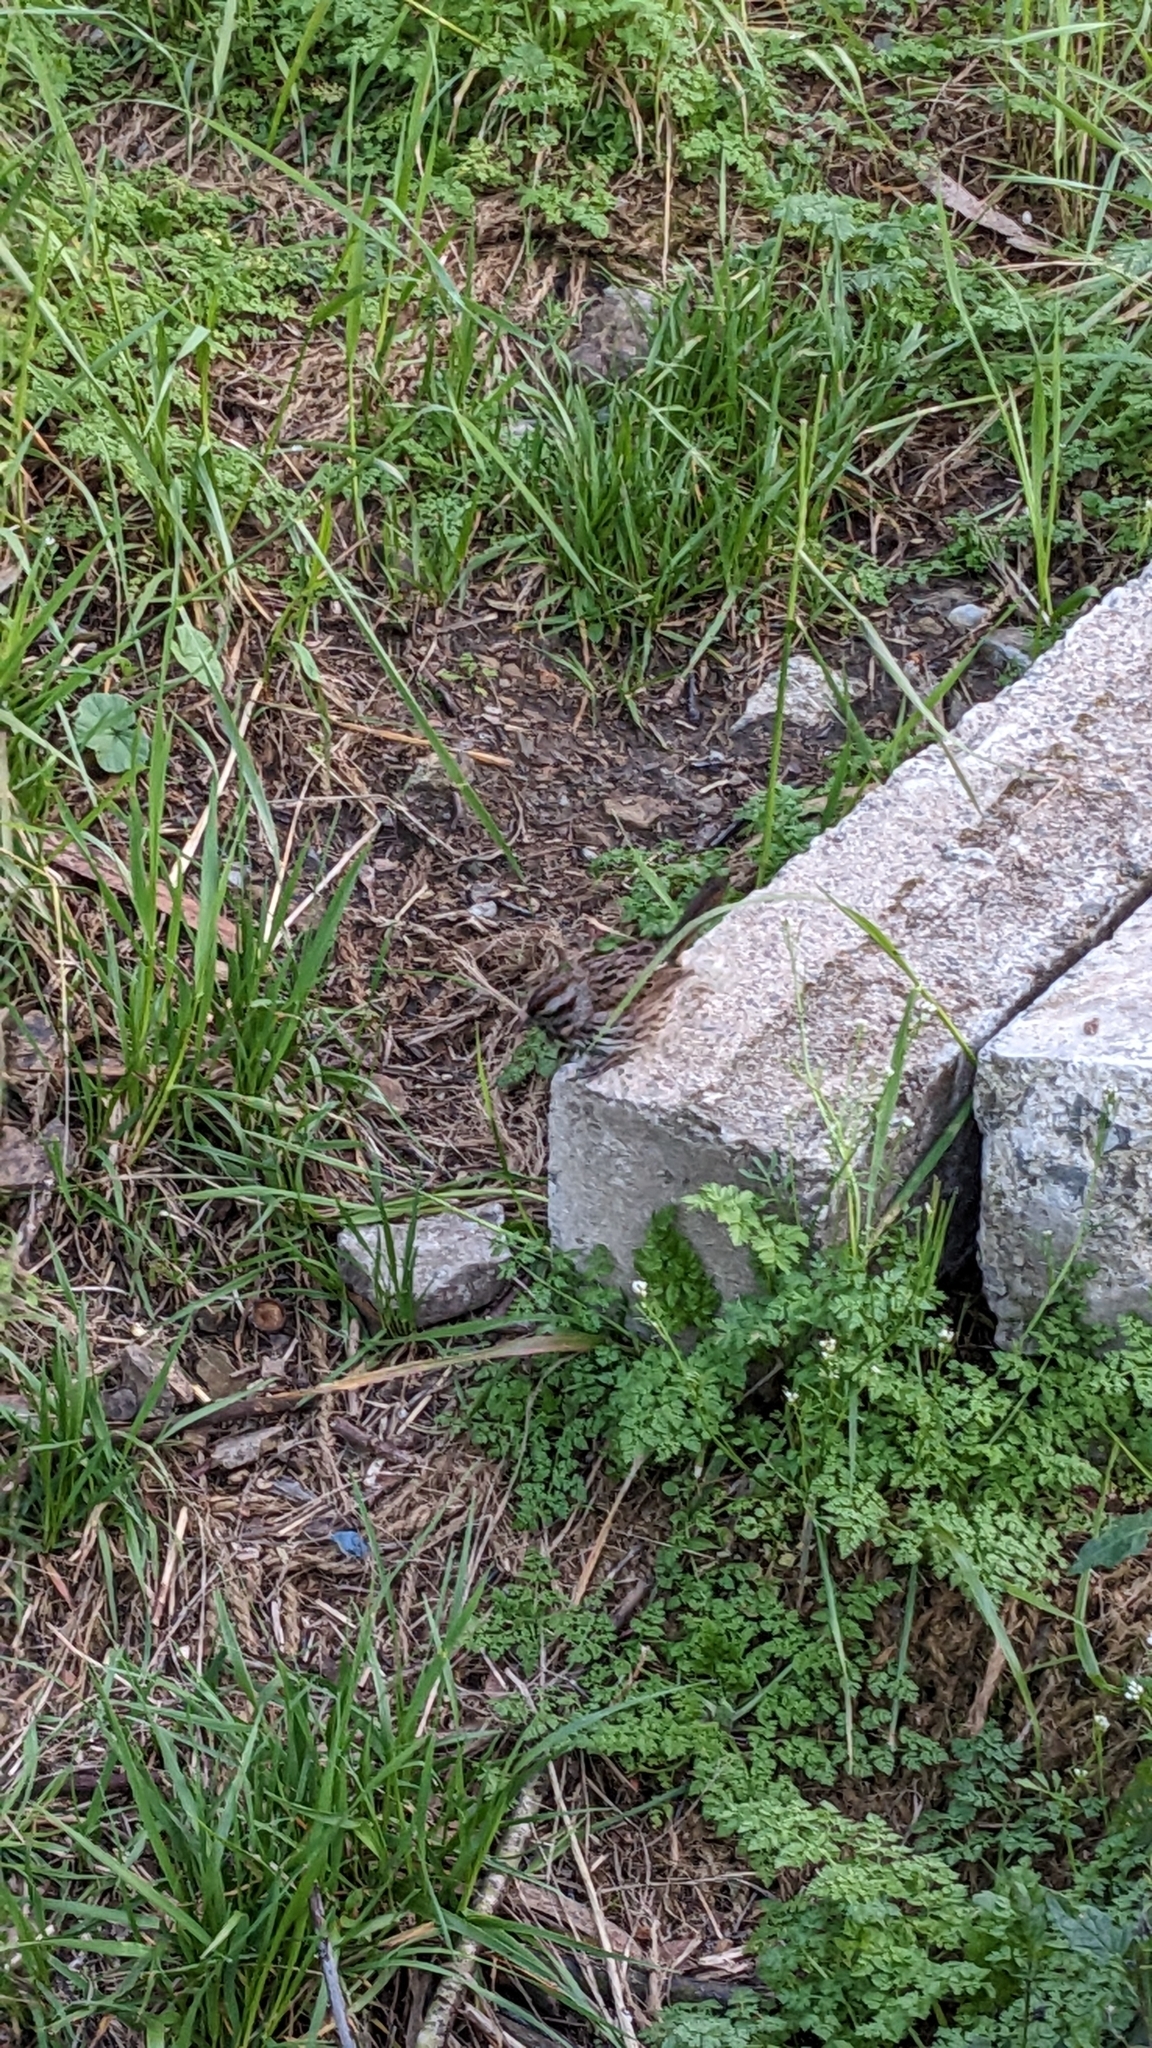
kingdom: Animalia
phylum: Chordata
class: Aves
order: Passeriformes
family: Passerellidae
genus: Melospiza
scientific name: Melospiza melodia
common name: Song sparrow
